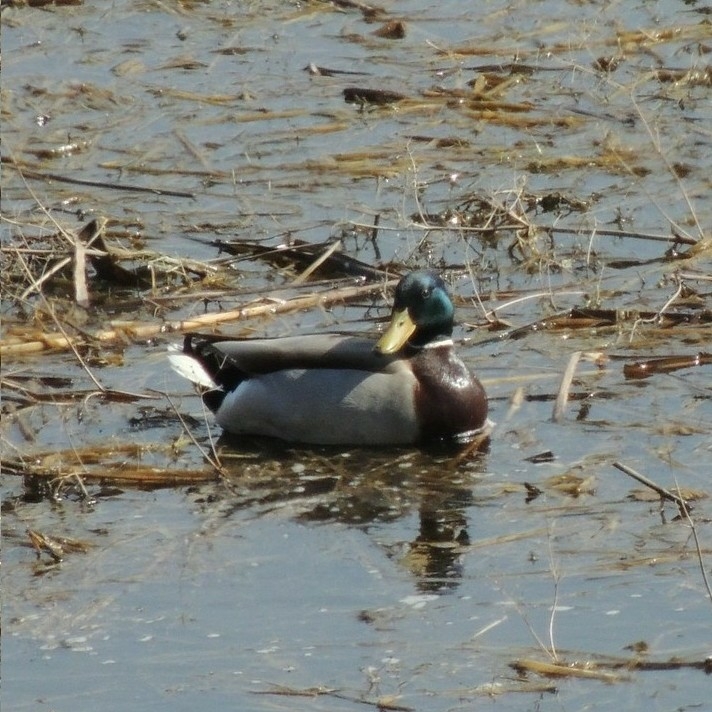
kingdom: Animalia
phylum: Chordata
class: Aves
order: Anseriformes
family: Anatidae
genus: Anas
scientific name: Anas platyrhynchos
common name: Mallard
